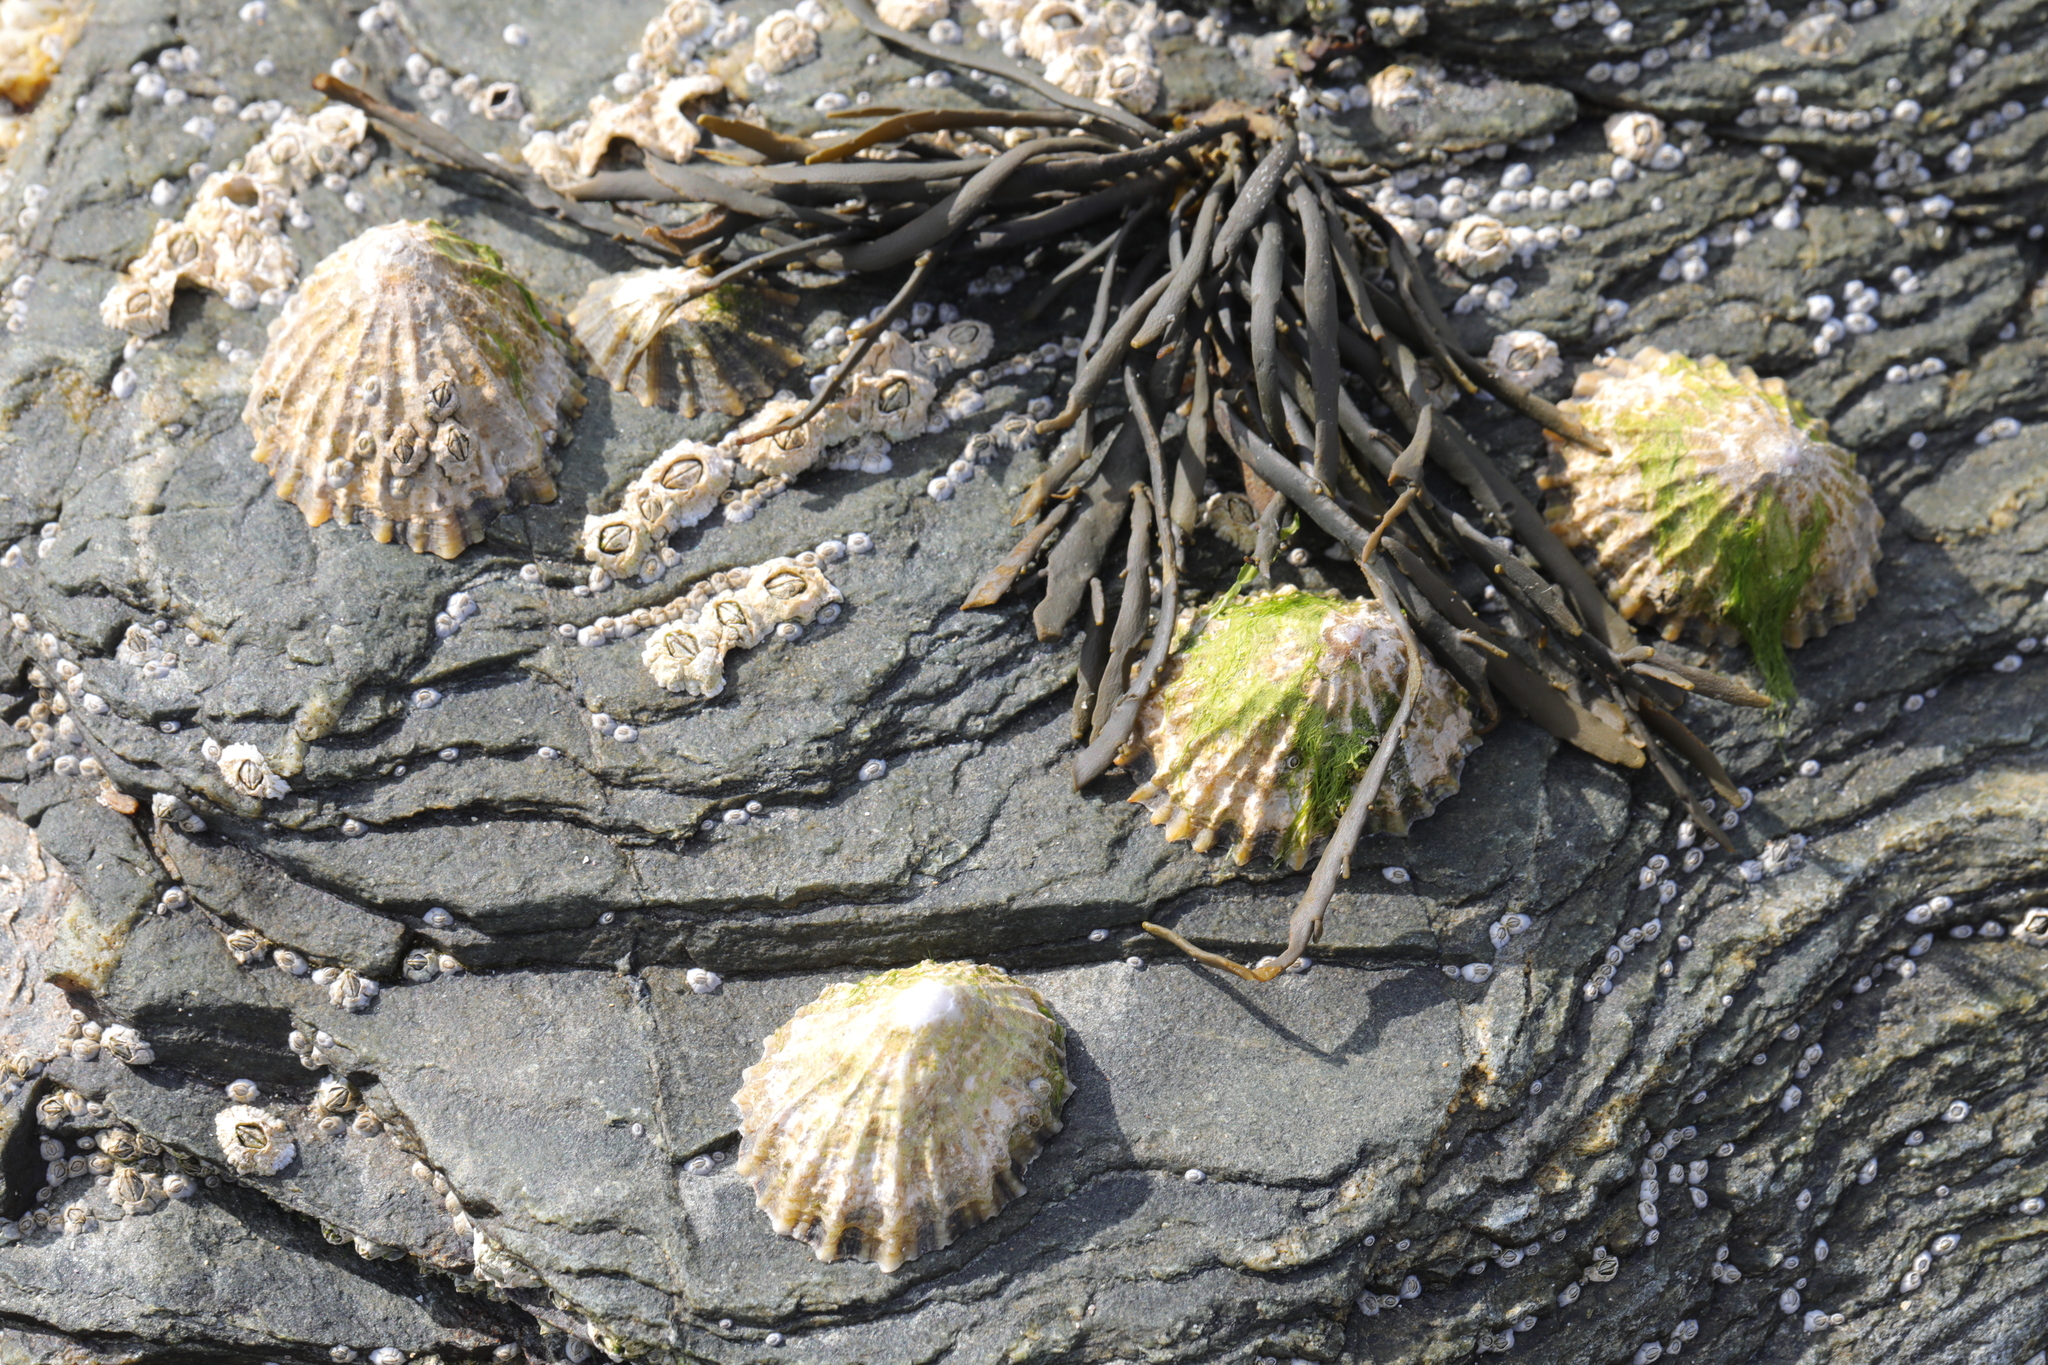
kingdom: Animalia
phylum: Mollusca
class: Gastropoda
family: Patellidae
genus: Patella
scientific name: Patella vulgata
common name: Common limpet
